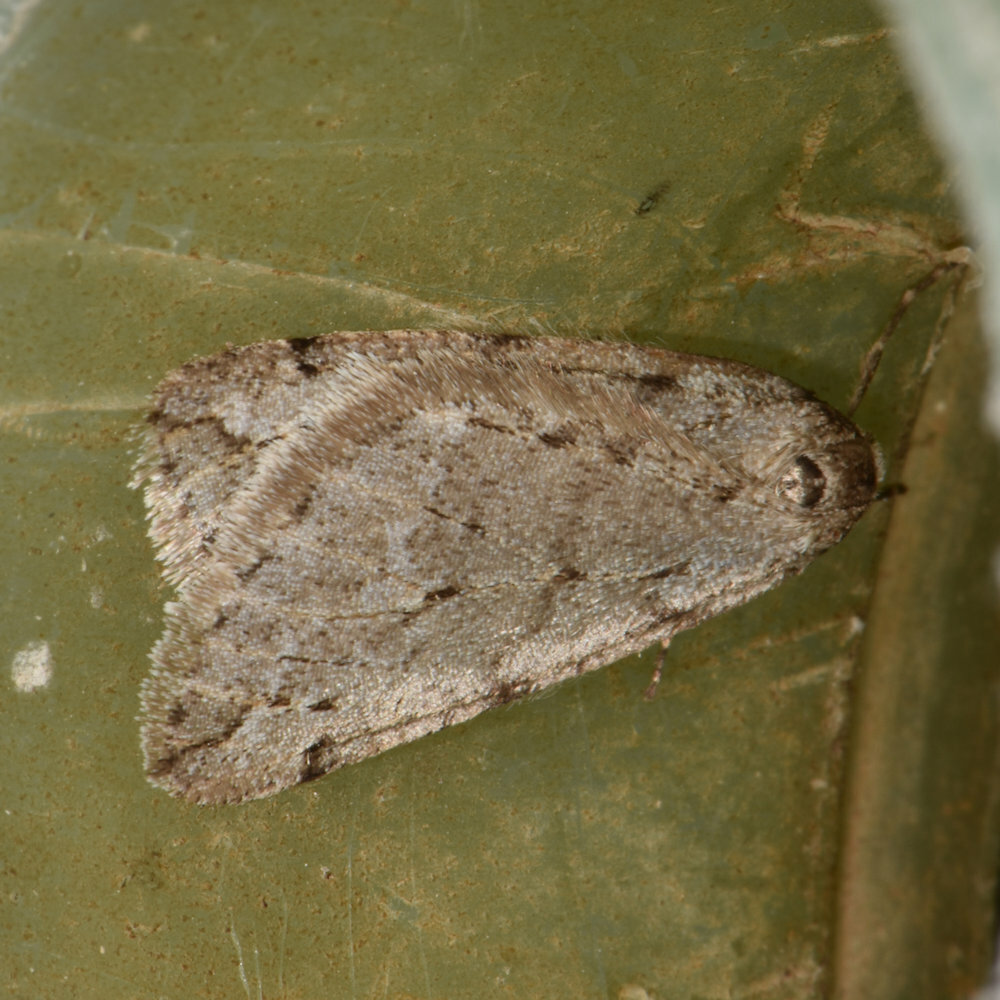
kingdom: Animalia
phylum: Arthropoda
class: Insecta
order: Lepidoptera
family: Geometridae
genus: Paleacrita
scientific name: Paleacrita vernata
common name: Spring cankerworm
